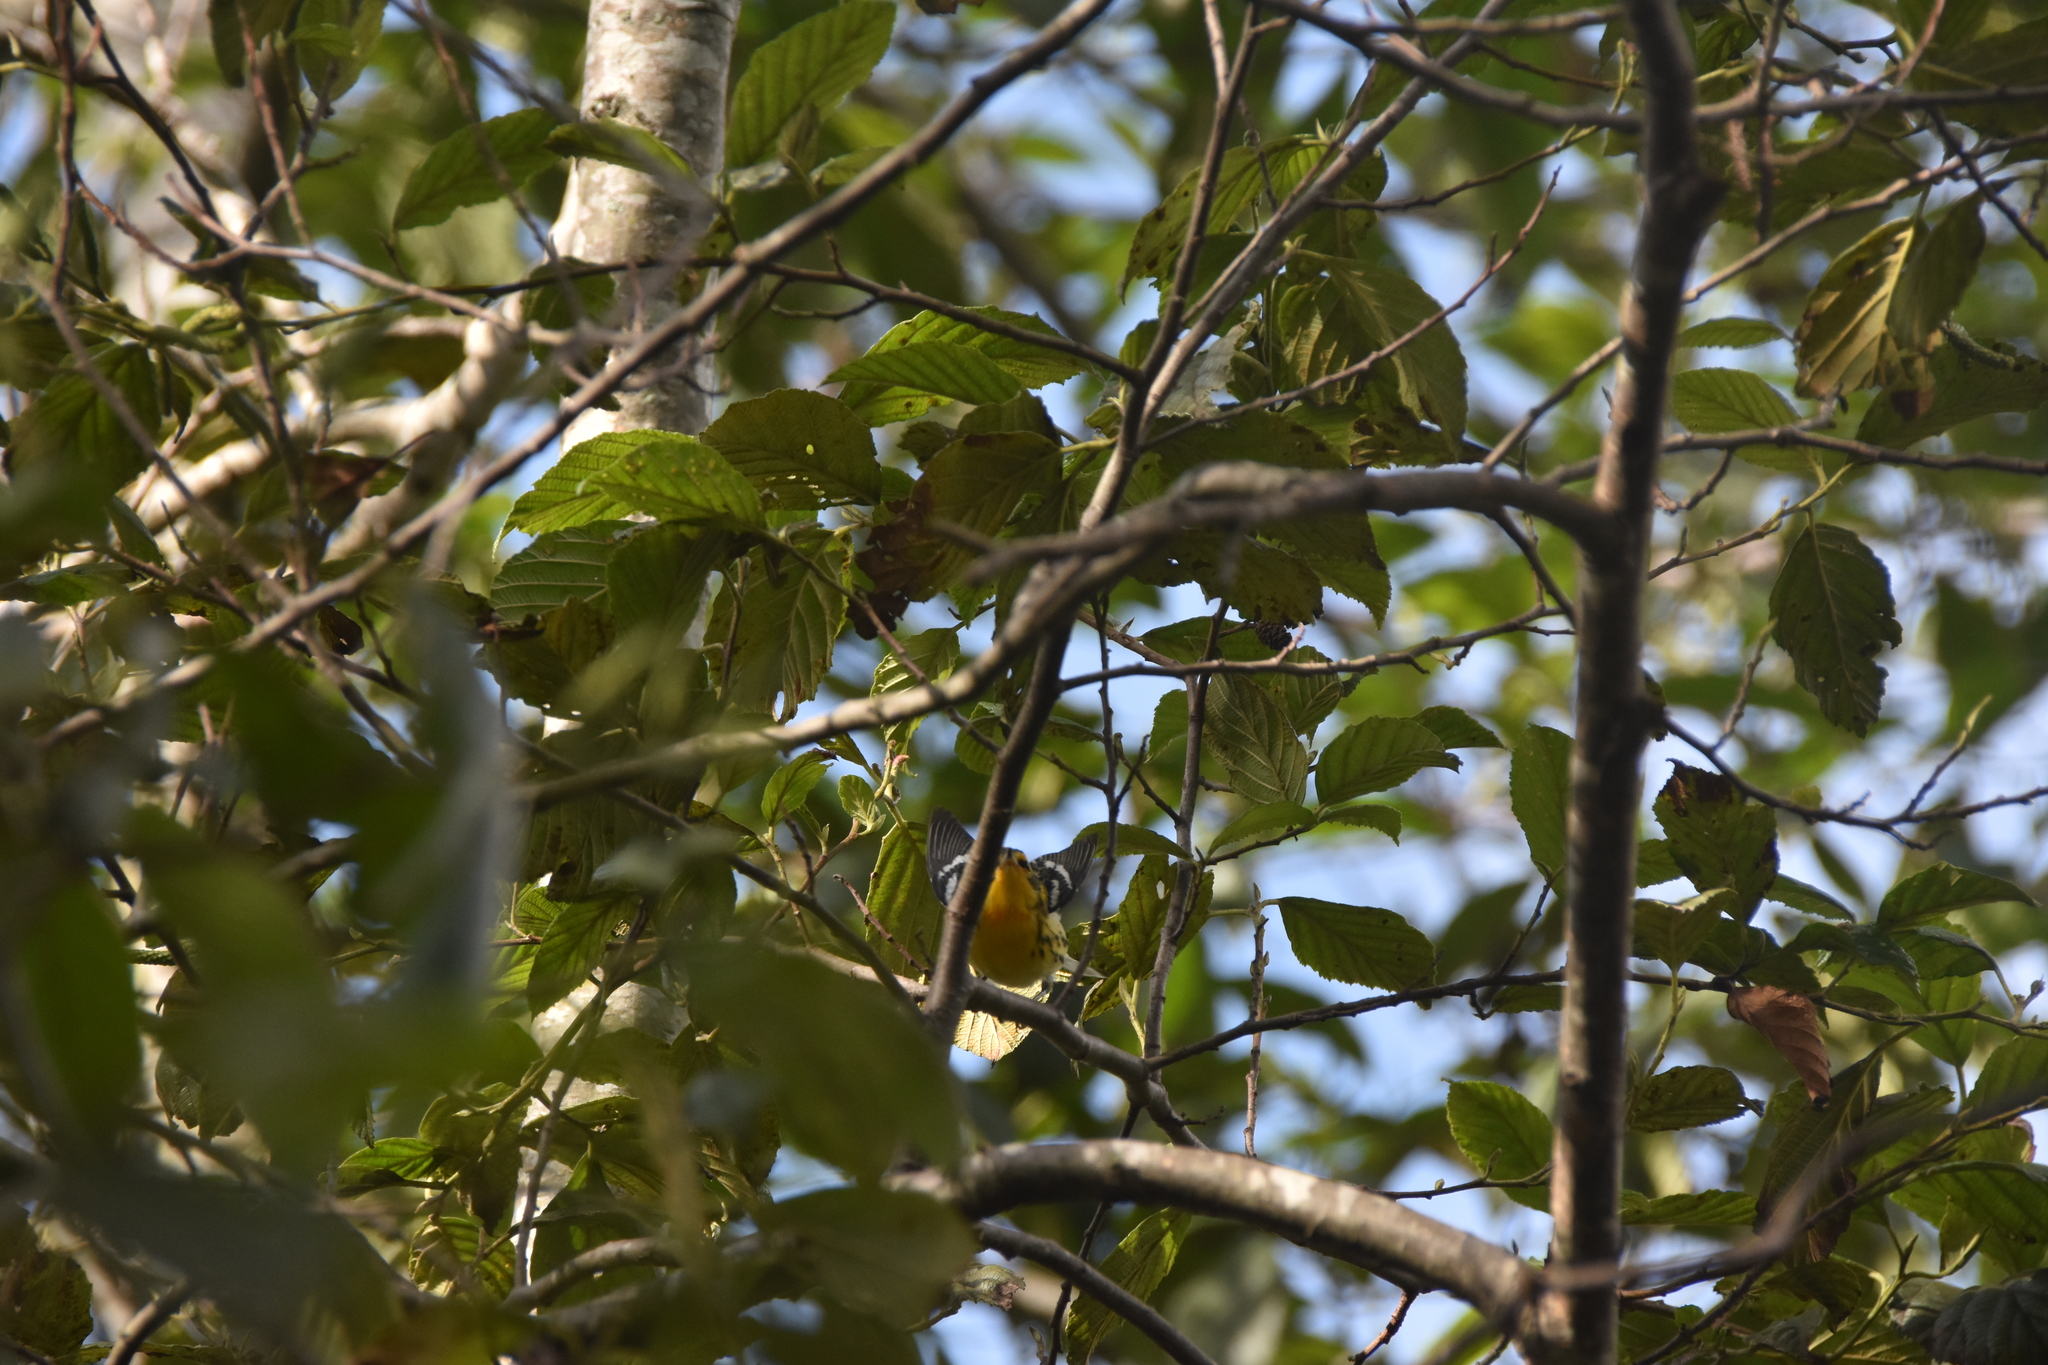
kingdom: Animalia
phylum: Chordata
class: Aves
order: Passeriformes
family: Parulidae
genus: Setophaga
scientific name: Setophaga fusca
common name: Blackburnian warbler
